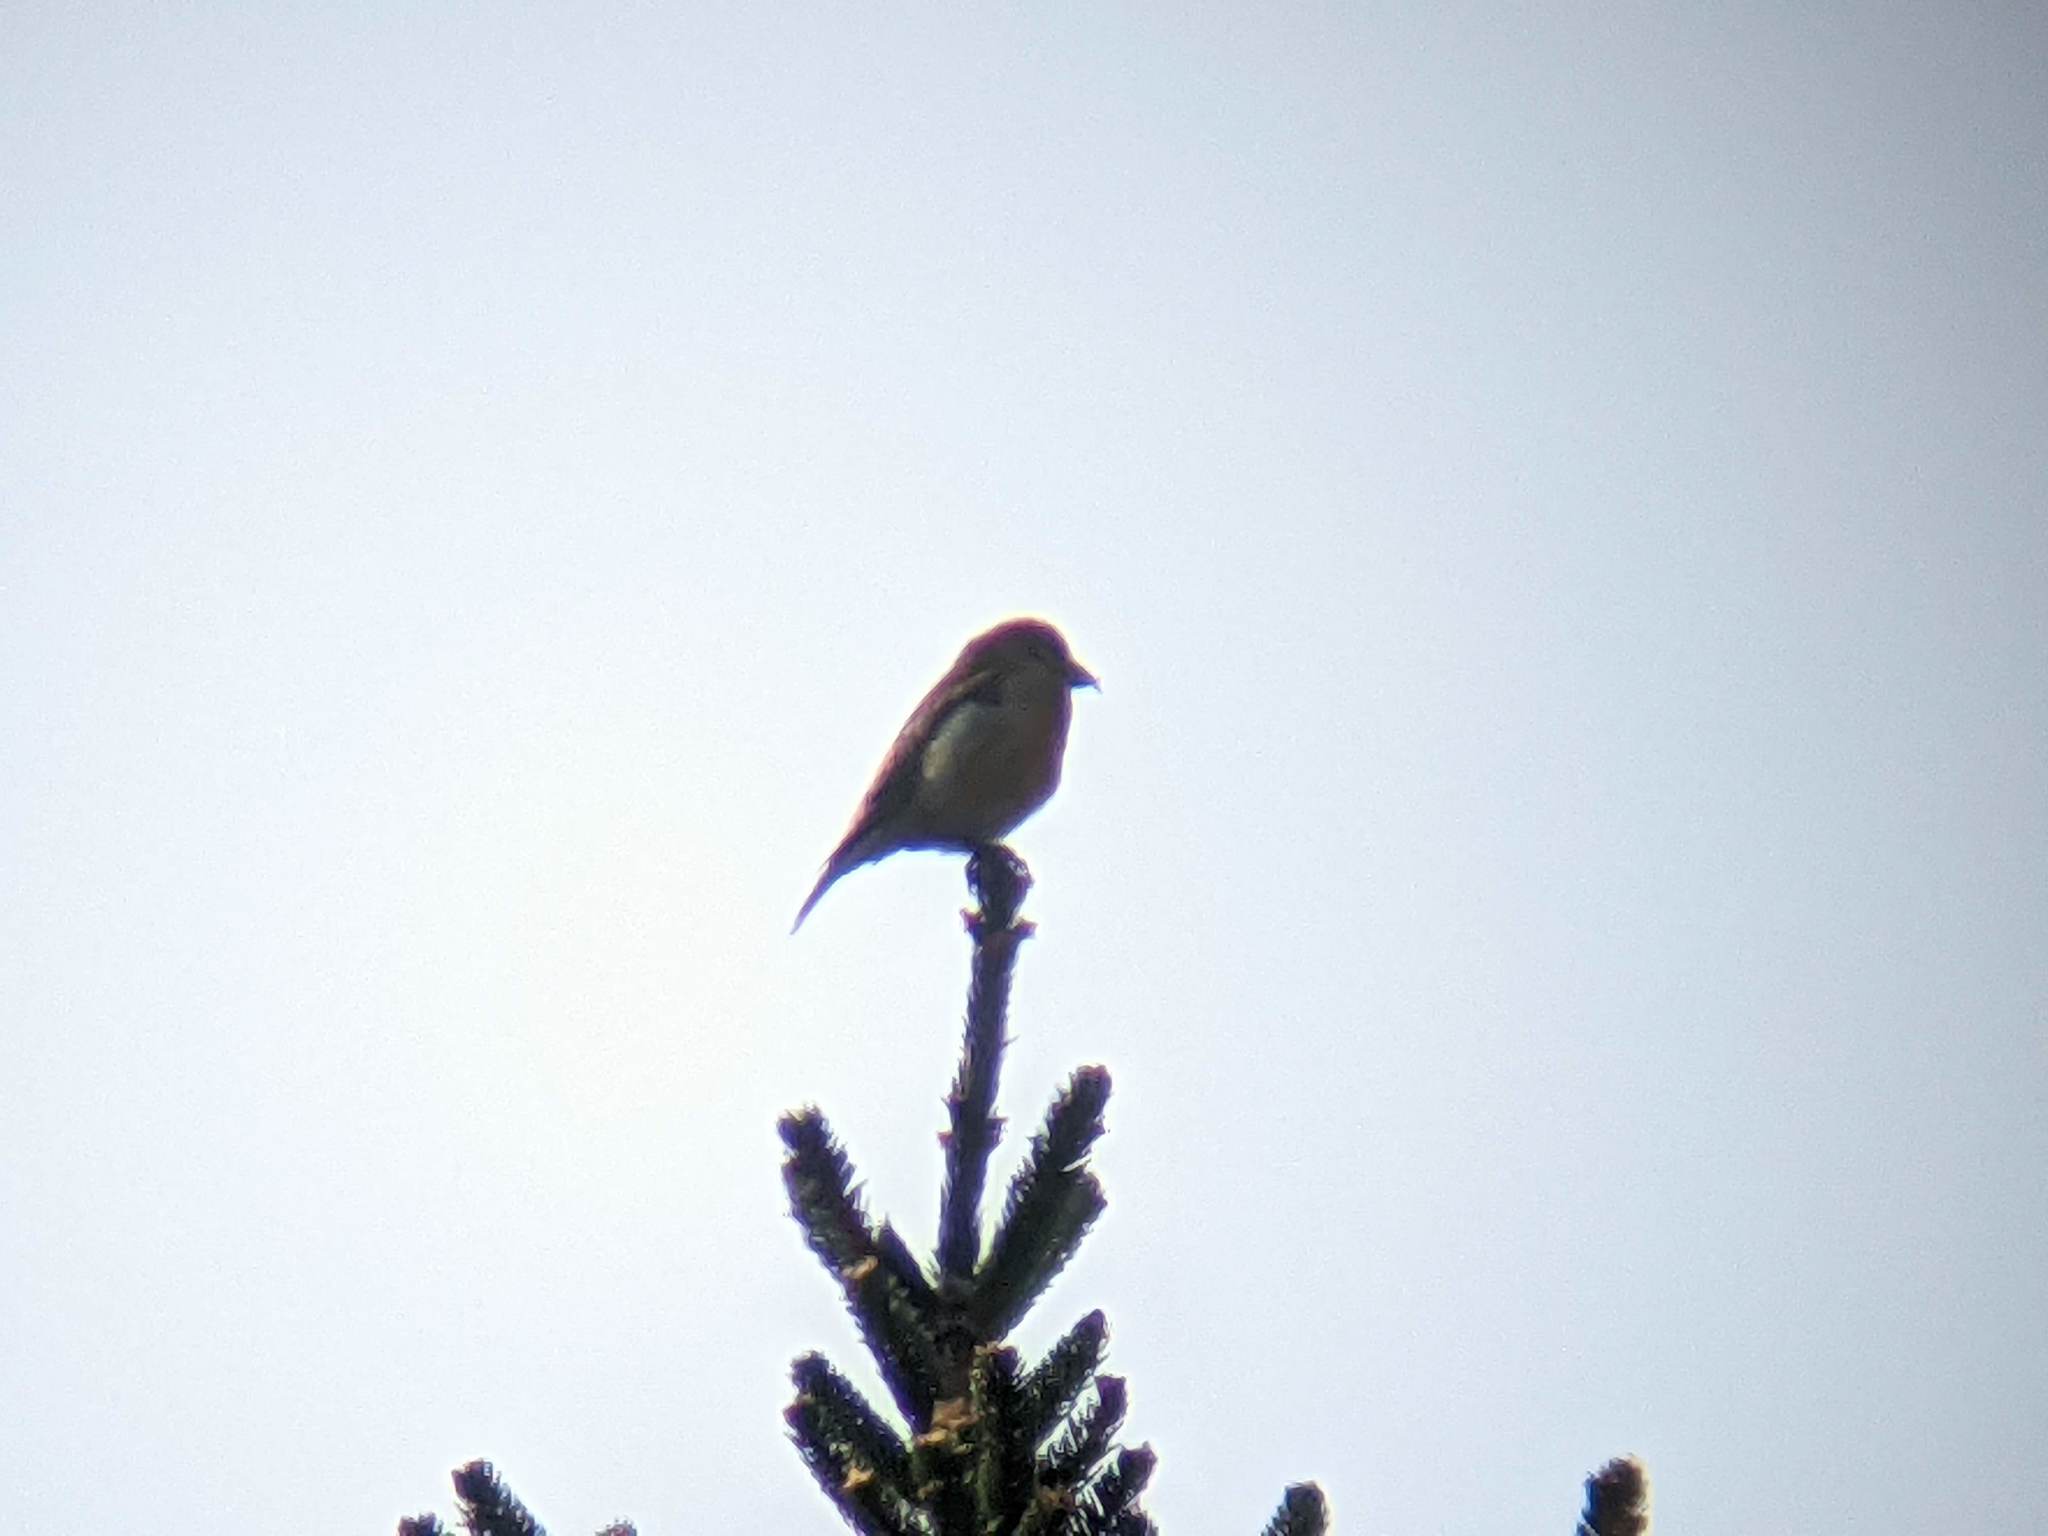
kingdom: Animalia
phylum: Chordata
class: Aves
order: Passeriformes
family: Fringillidae
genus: Loxia
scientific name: Loxia curvirostra
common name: Red crossbill
